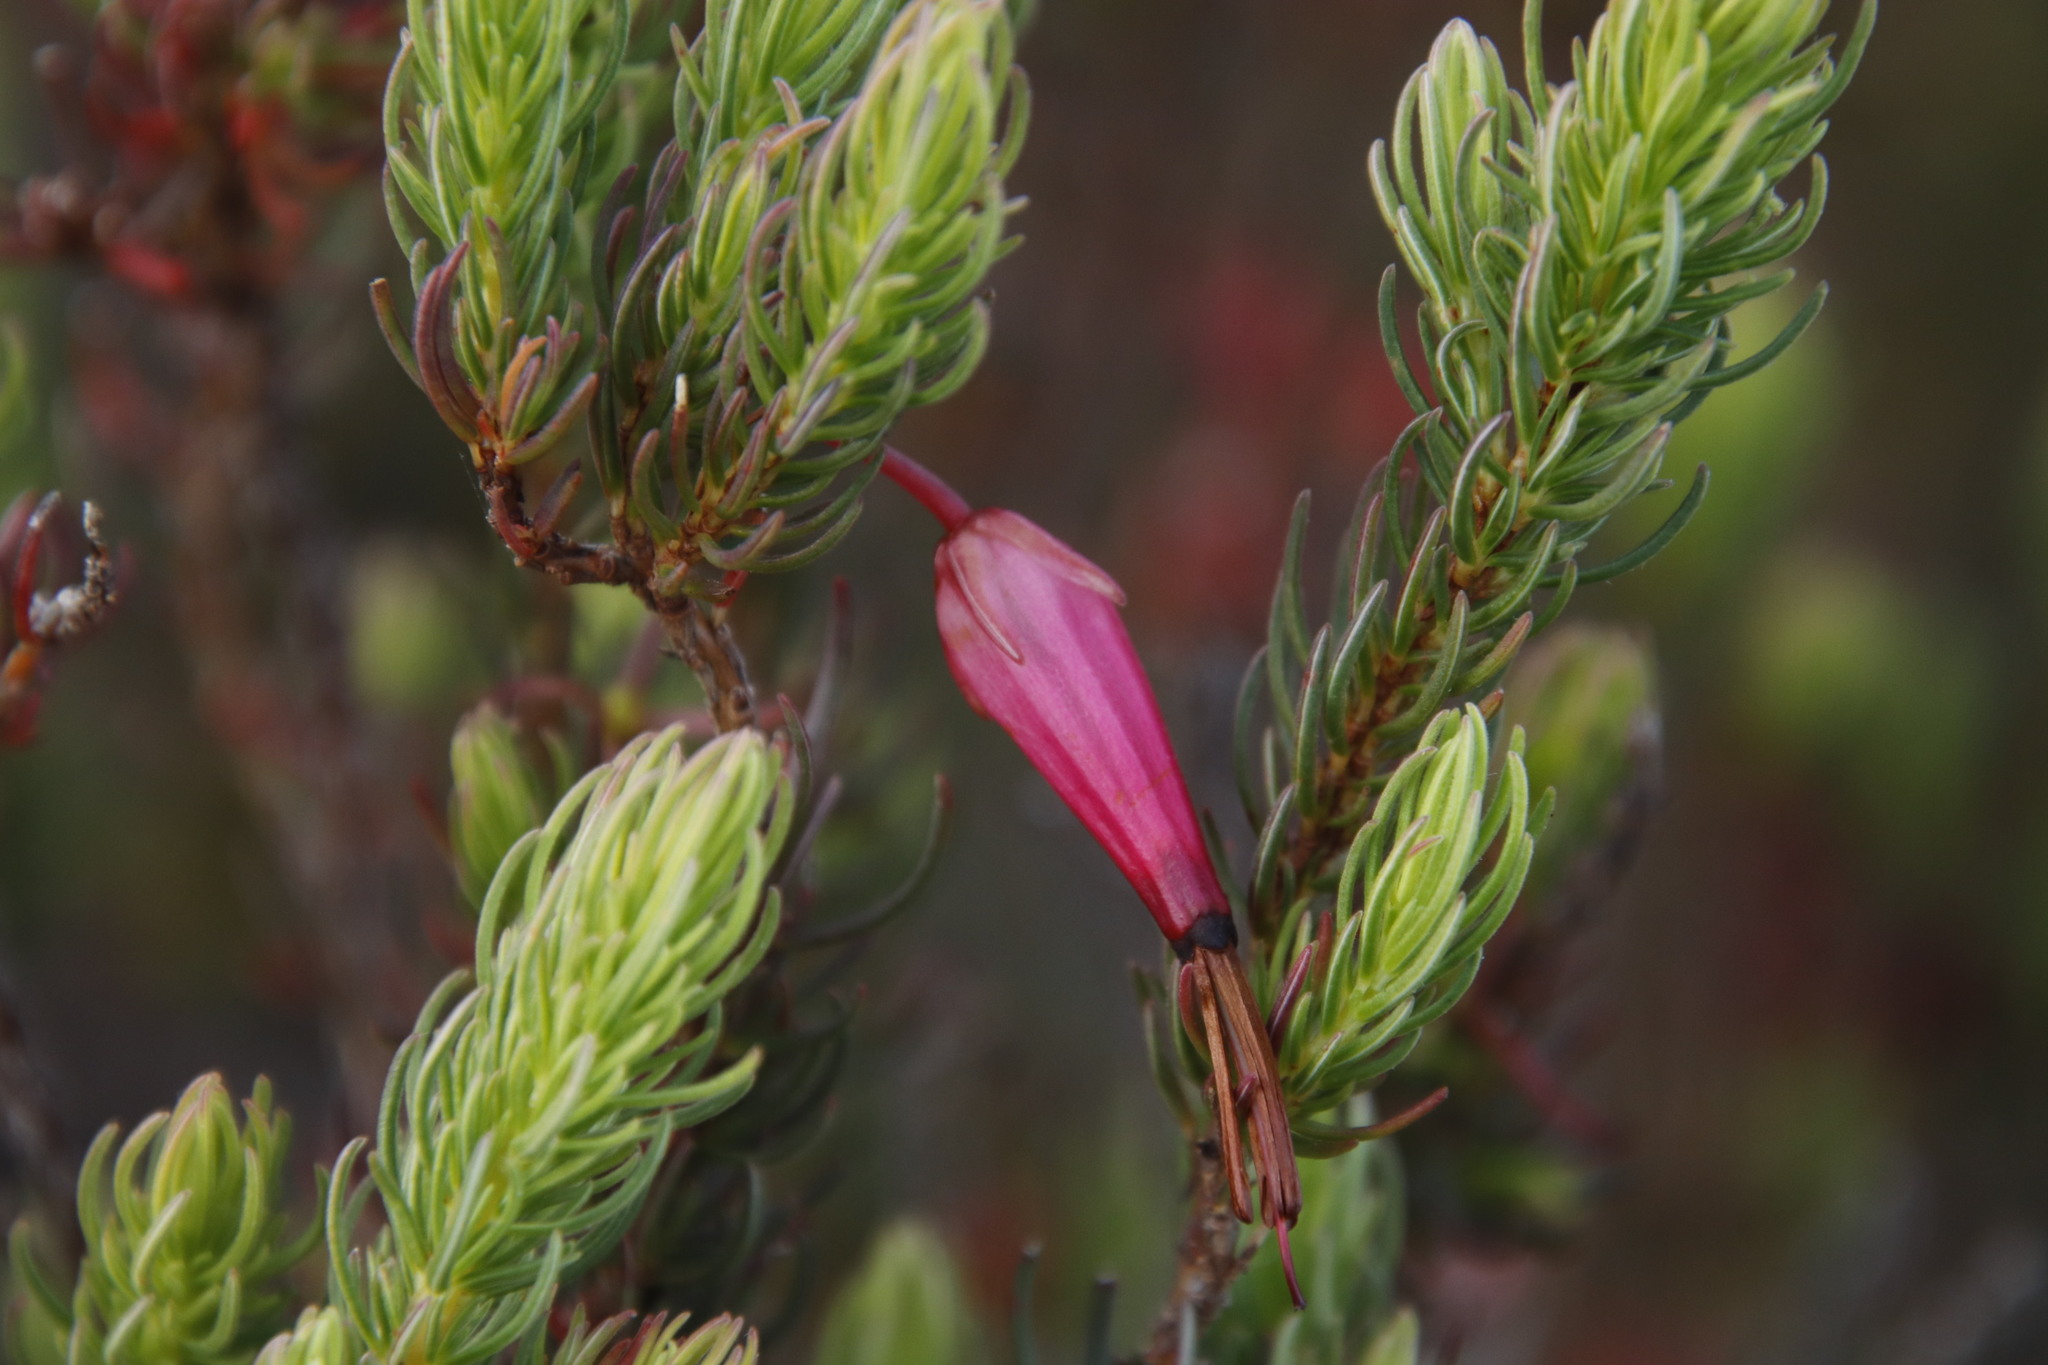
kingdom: Plantae
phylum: Tracheophyta
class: Magnoliopsida
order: Ericales
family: Ericaceae
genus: Erica
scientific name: Erica plukenetii
